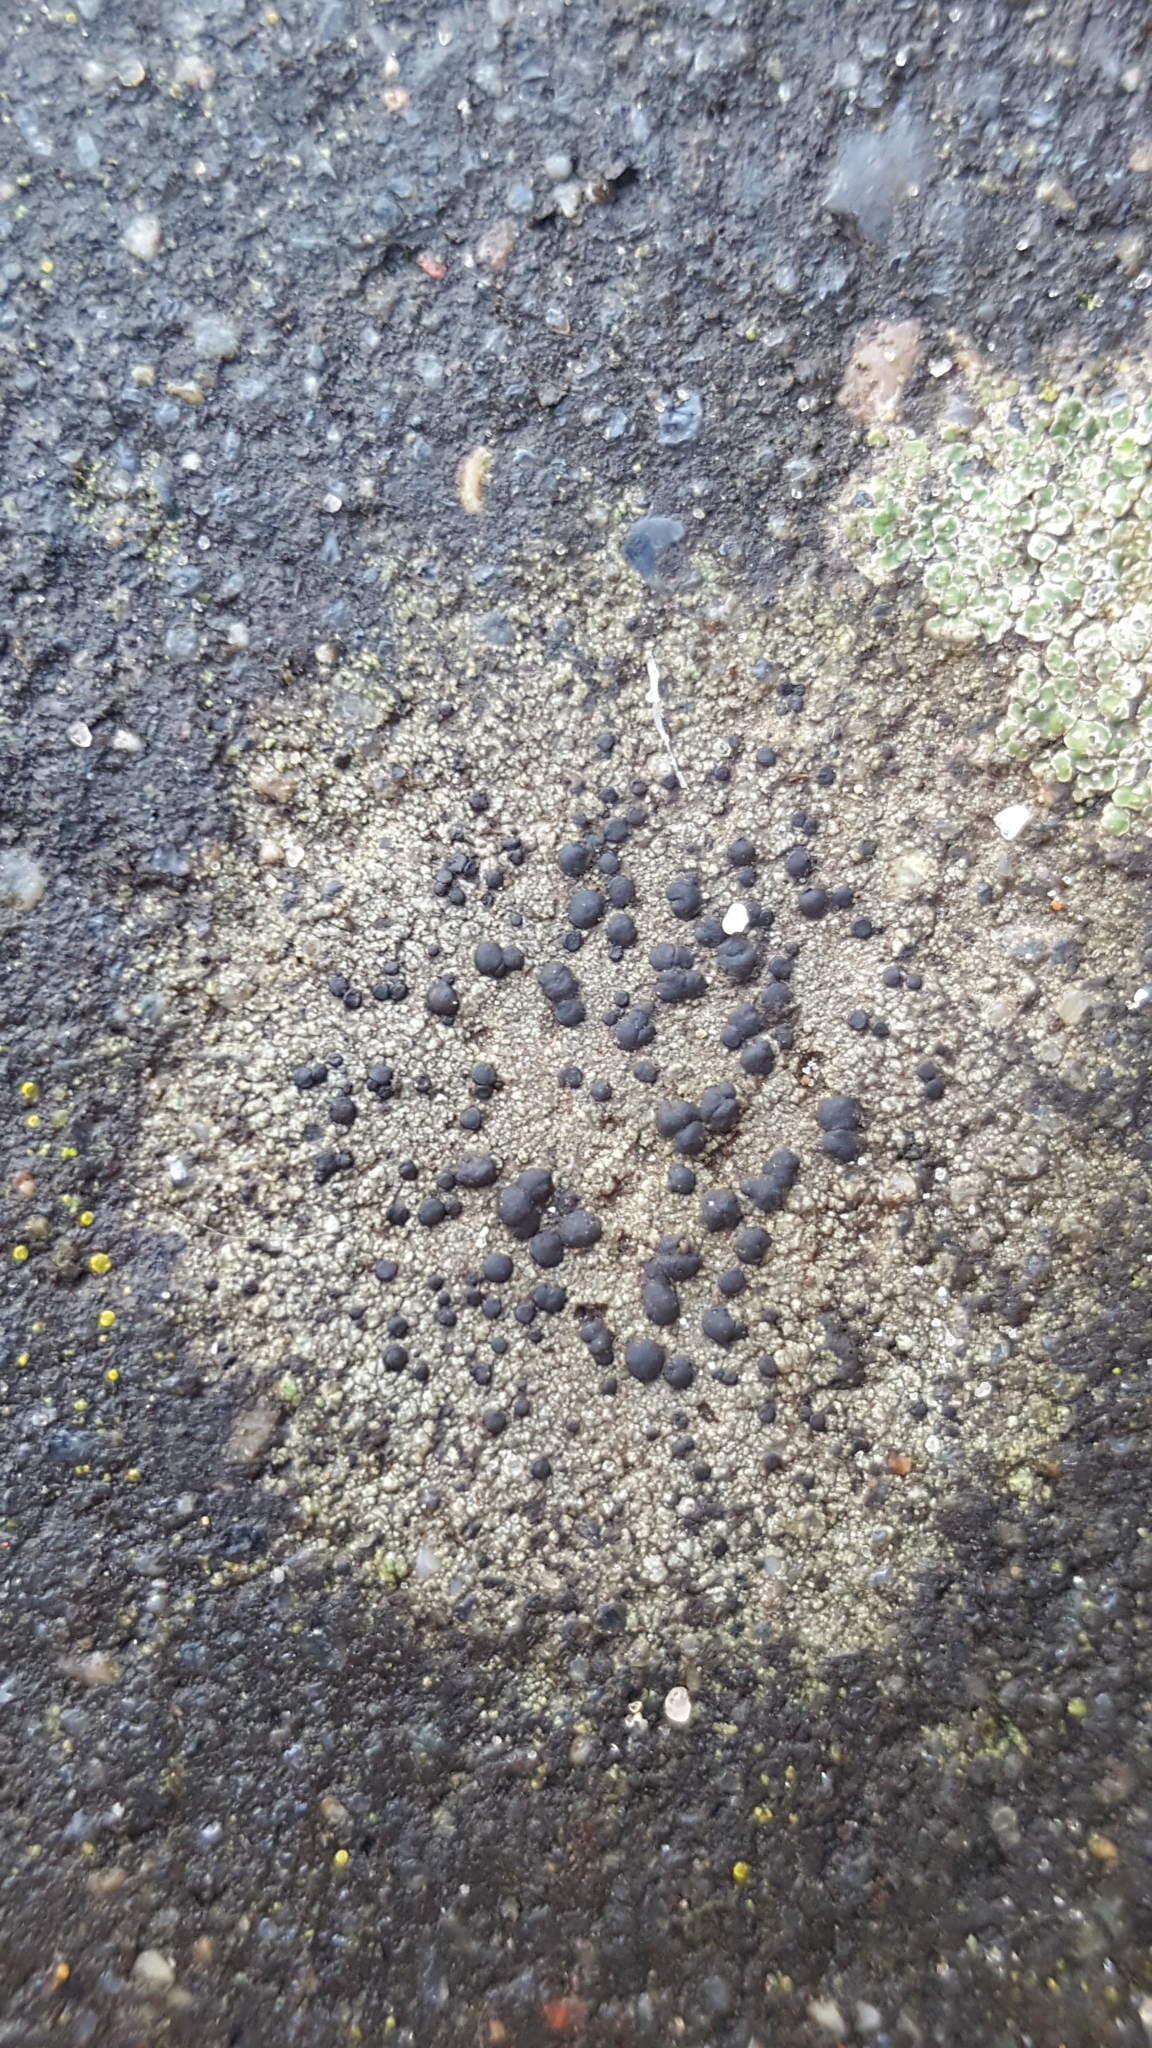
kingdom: Fungi
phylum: Ascomycota
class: Lecanoromycetes
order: Lecanorales
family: Lecanoraceae
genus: Lecidella
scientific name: Lecidella stigmatea
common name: Limestone disc lichen
